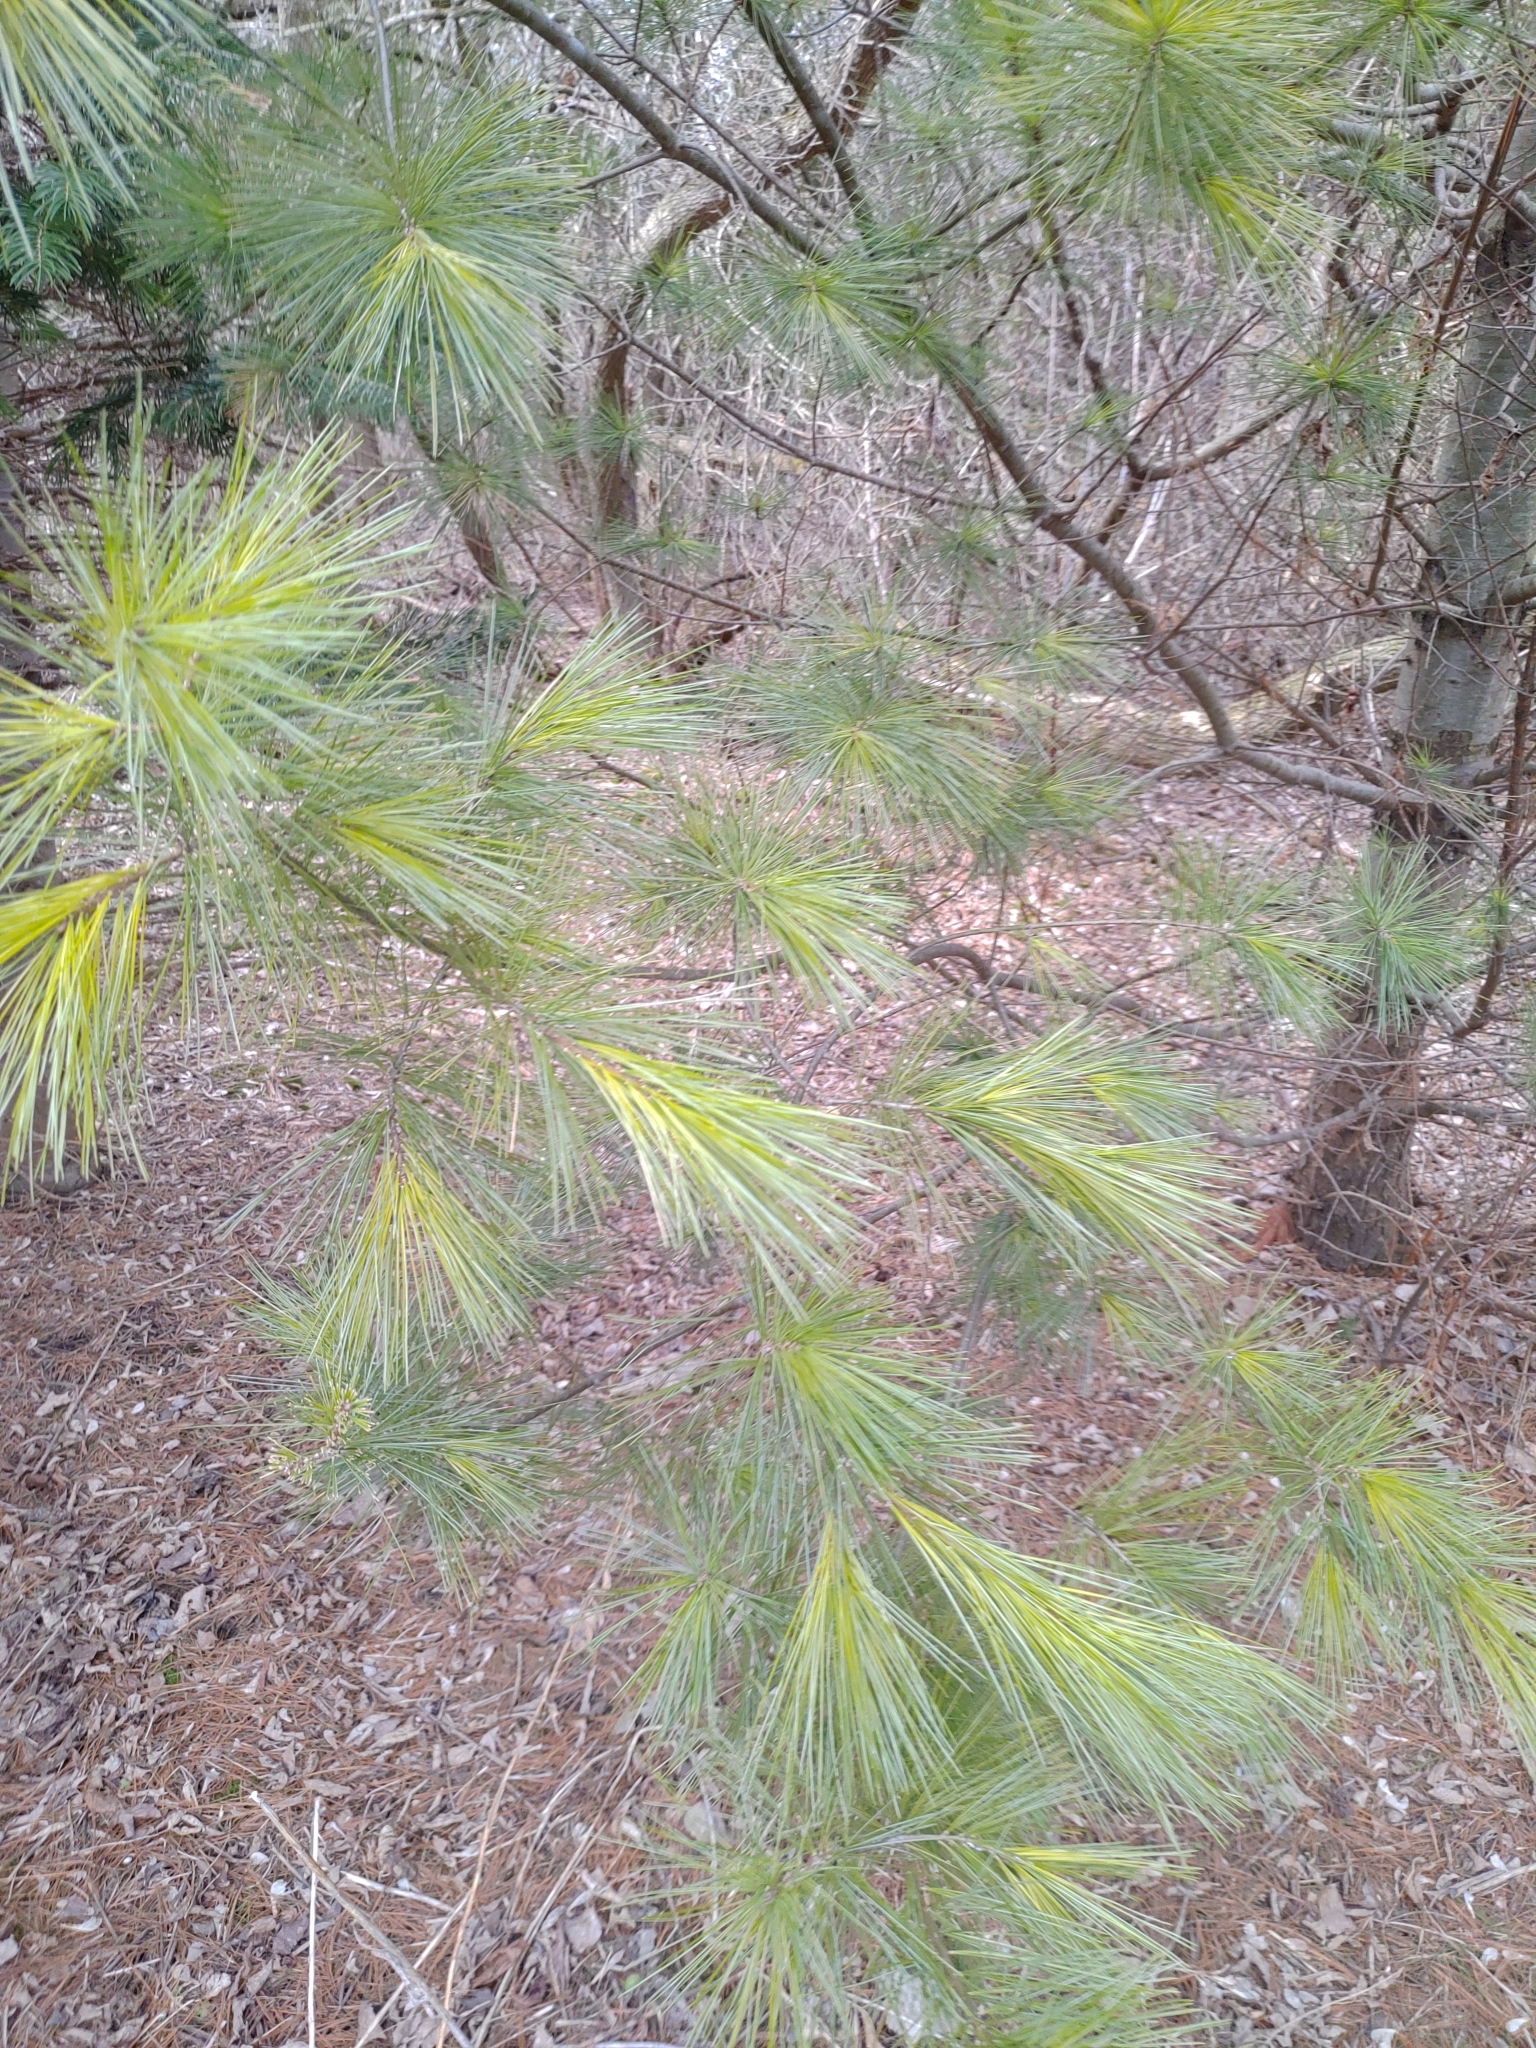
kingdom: Plantae
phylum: Tracheophyta
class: Pinopsida
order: Pinales
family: Pinaceae
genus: Pinus
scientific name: Pinus strobus
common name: Weymouth pine
